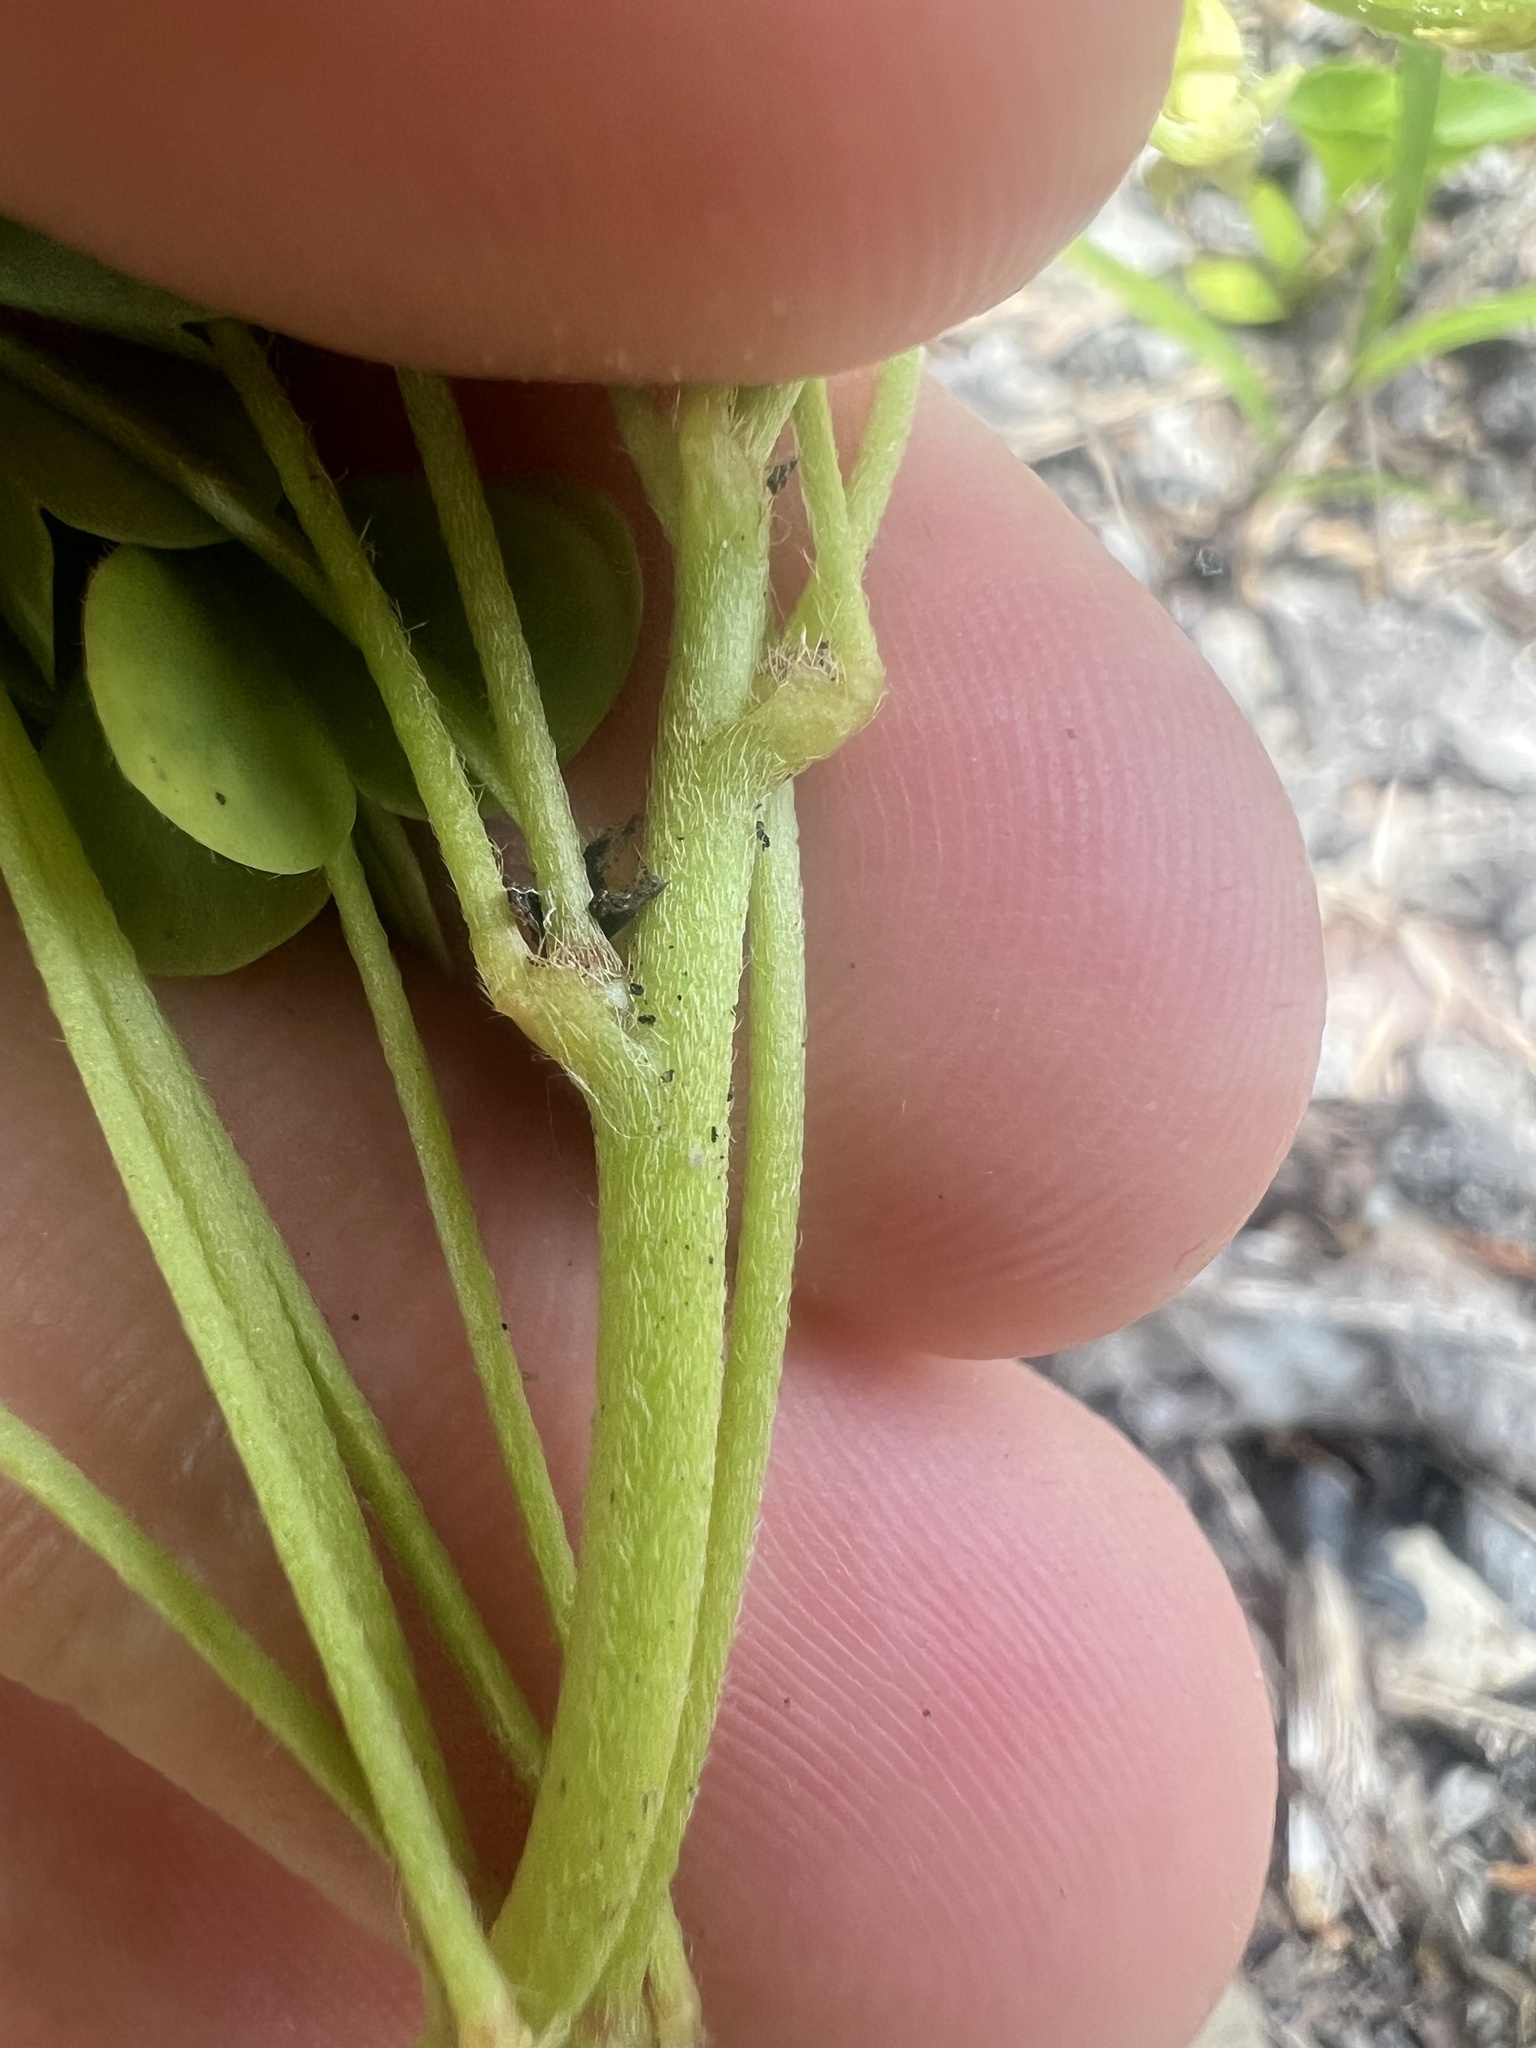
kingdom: Plantae
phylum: Tracheophyta
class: Magnoliopsida
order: Oxalidales
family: Oxalidaceae
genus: Oxalis
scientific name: Oxalis macrantha
